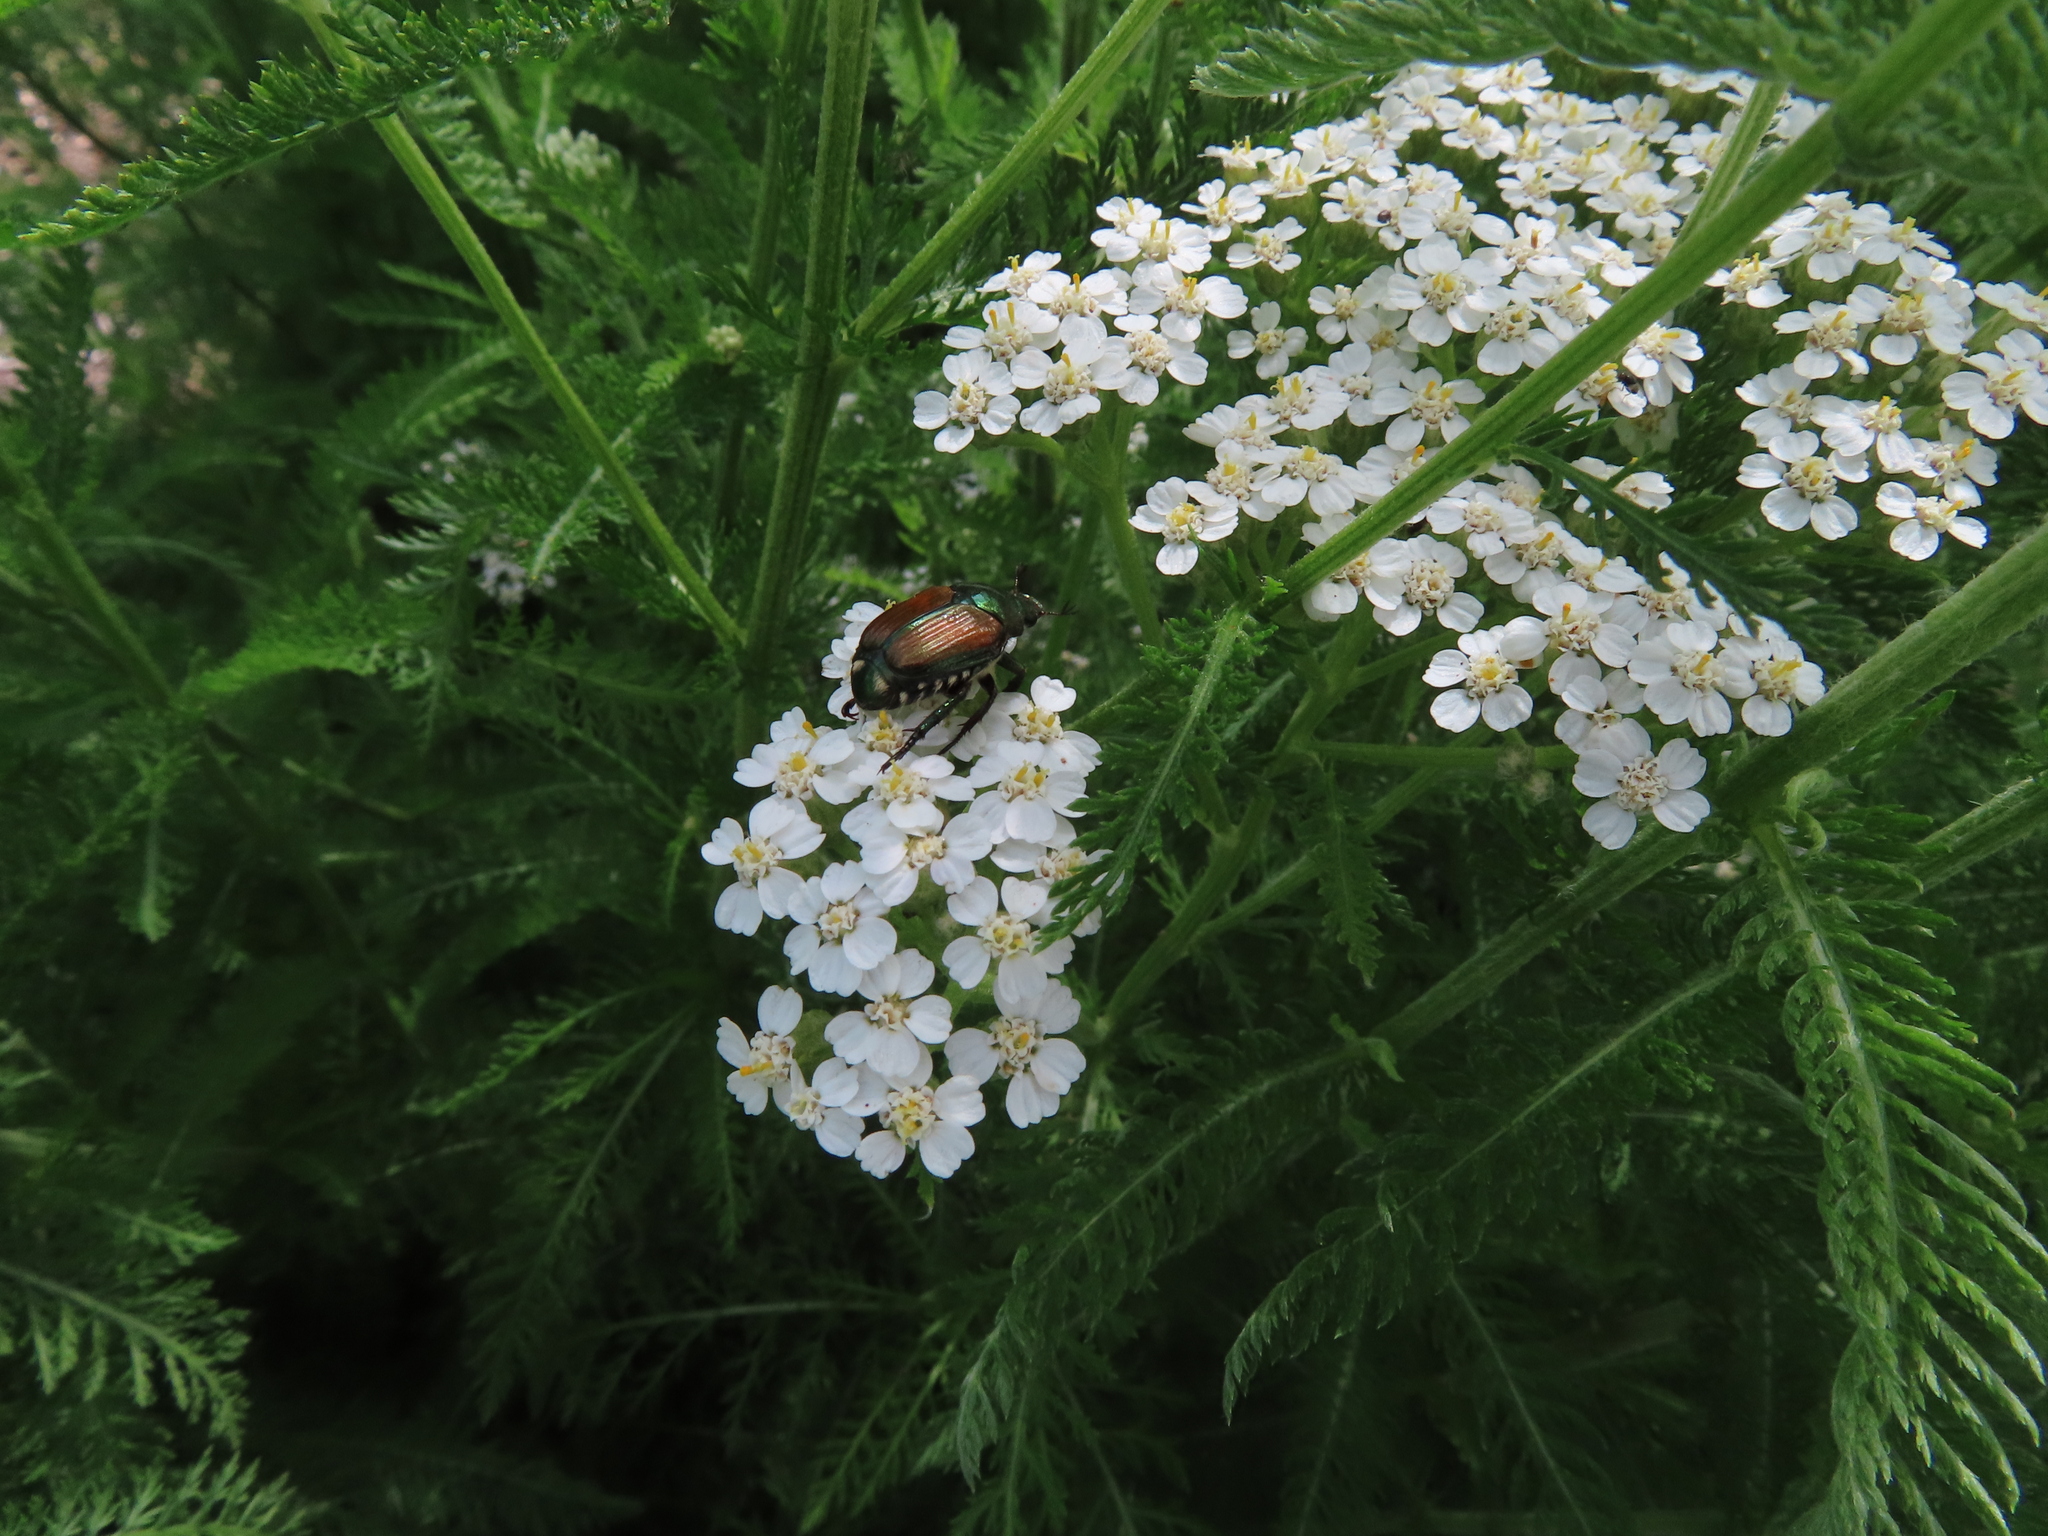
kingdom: Animalia
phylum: Arthropoda
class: Insecta
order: Coleoptera
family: Scarabaeidae
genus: Popillia
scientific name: Popillia japonica
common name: Japanese beetle
